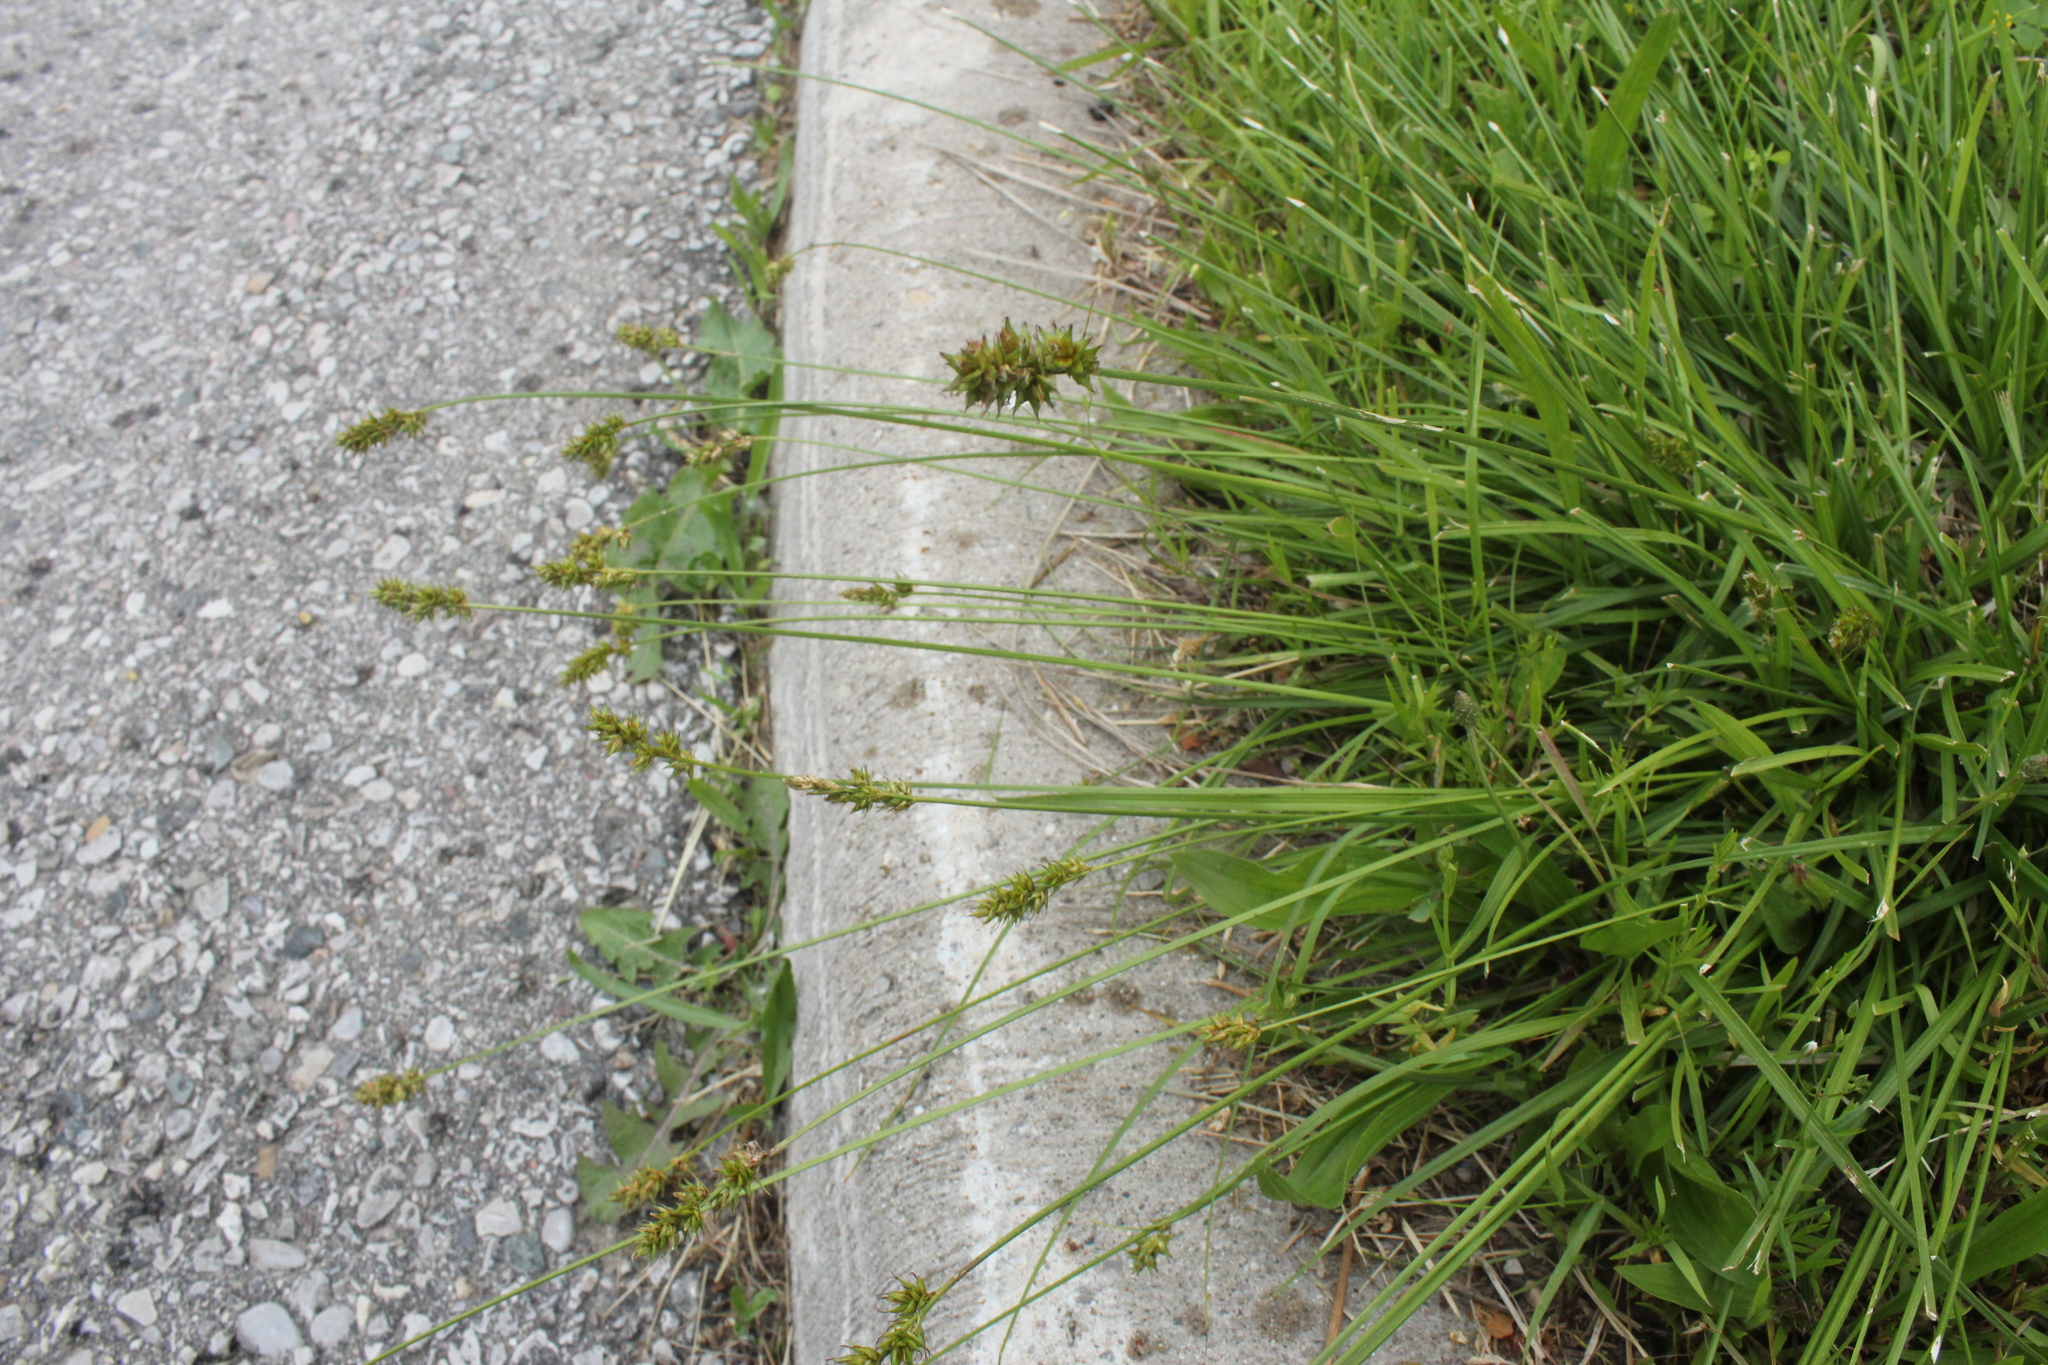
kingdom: Plantae
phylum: Tracheophyta
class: Liliopsida
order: Poales
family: Cyperaceae
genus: Carex
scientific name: Carex spicata
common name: Spiked sedge
